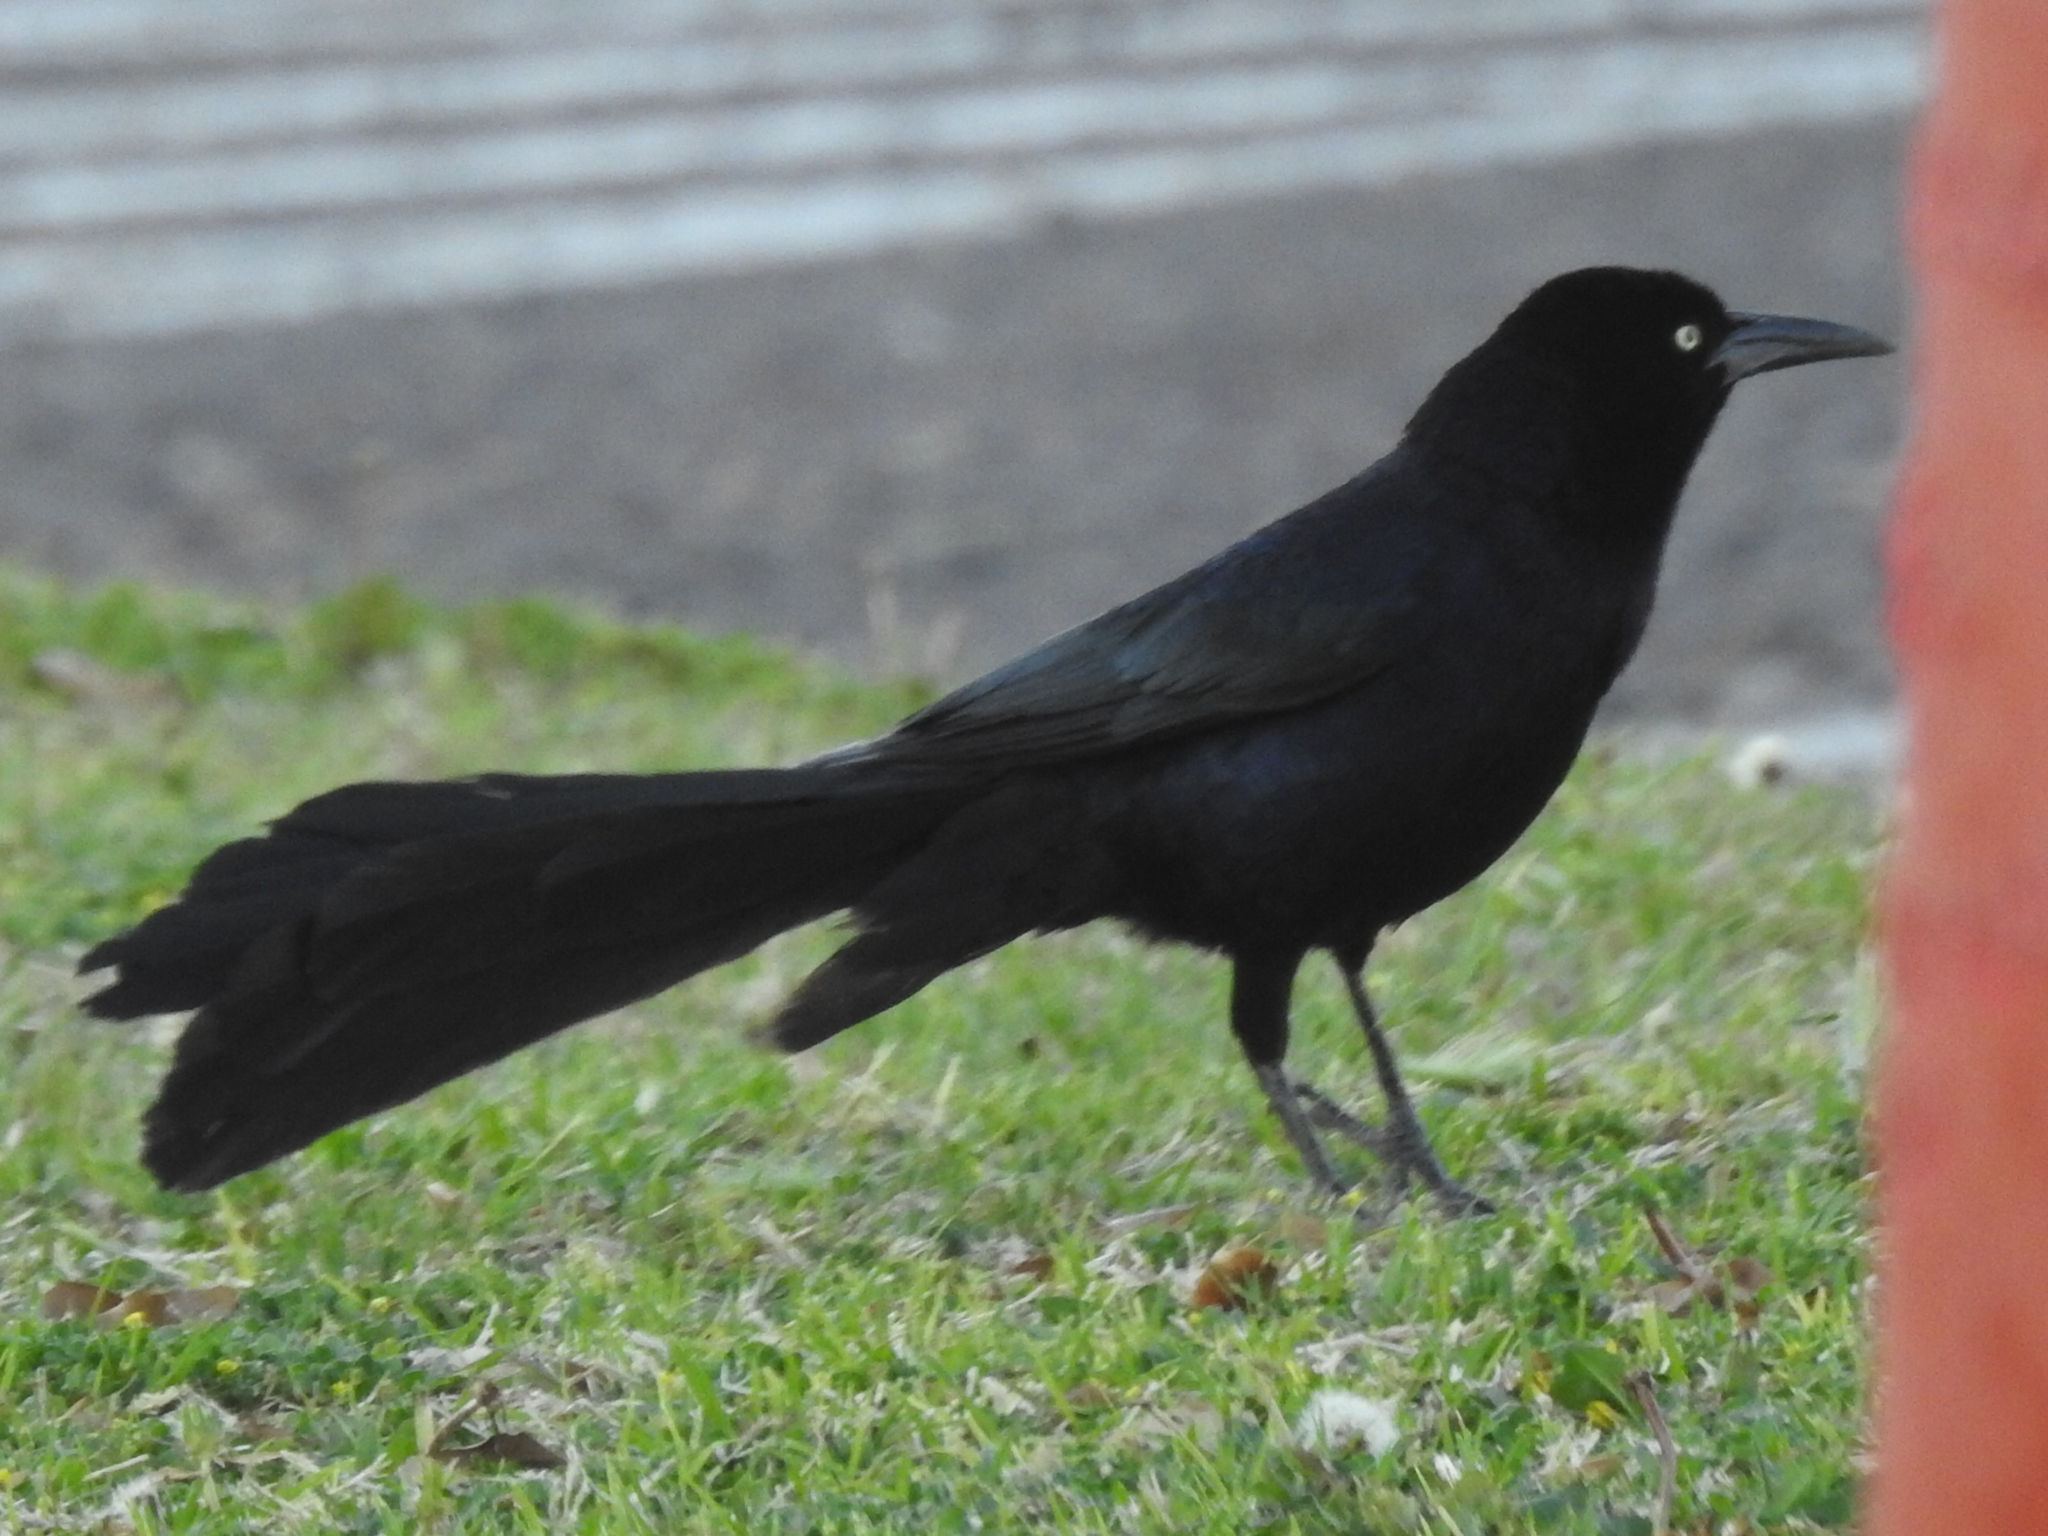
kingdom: Animalia
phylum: Chordata
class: Aves
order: Passeriformes
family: Icteridae
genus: Quiscalus
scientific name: Quiscalus mexicanus
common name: Great-tailed grackle
